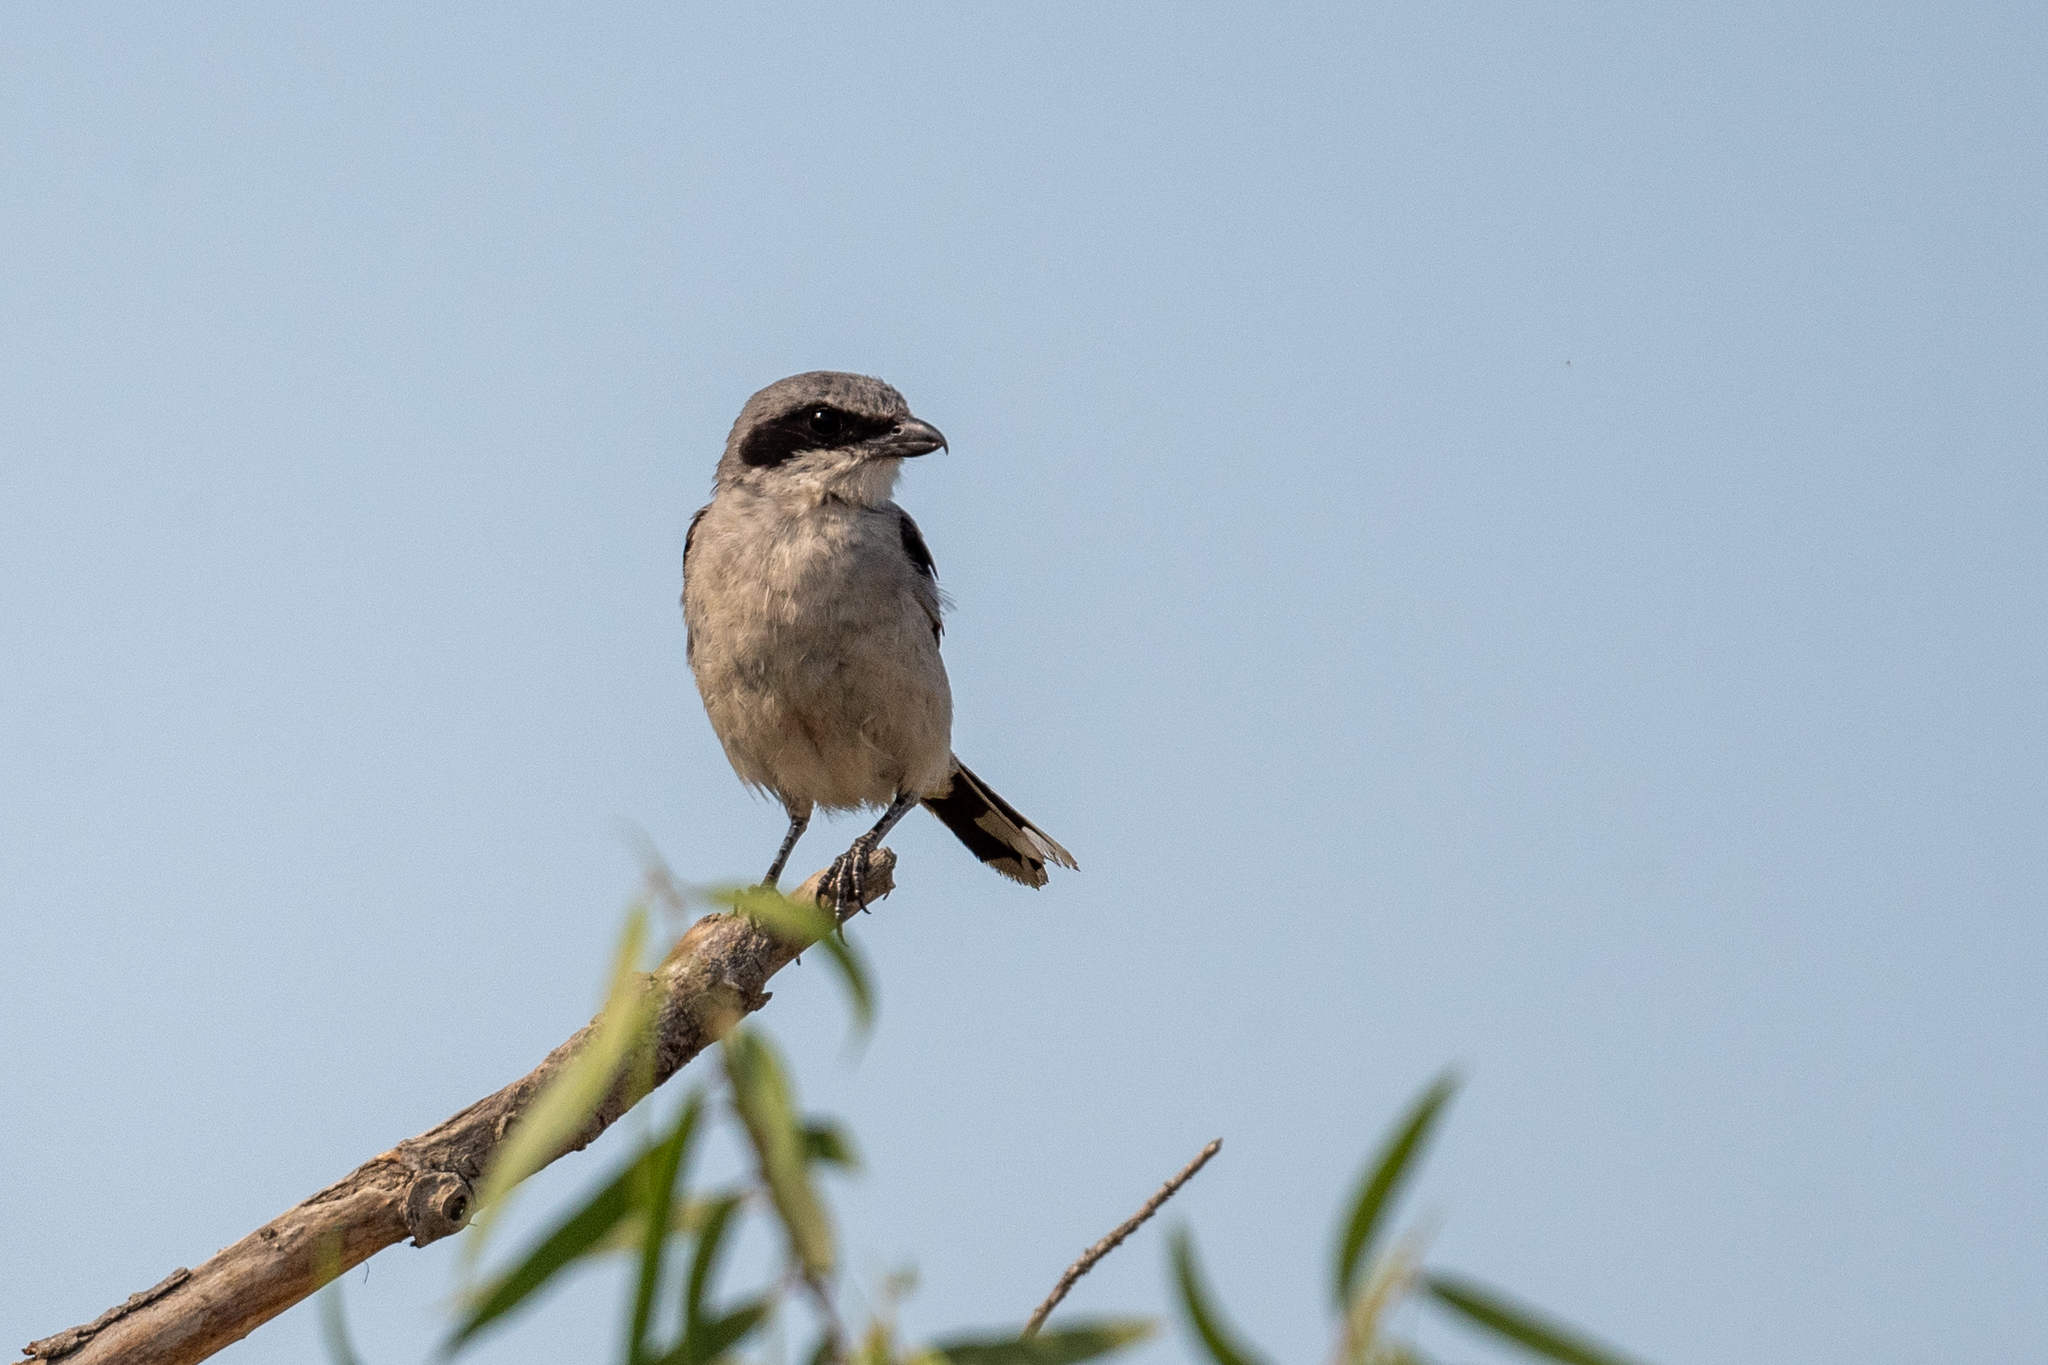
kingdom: Animalia
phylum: Chordata
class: Aves
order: Passeriformes
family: Laniidae
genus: Lanius
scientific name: Lanius ludovicianus
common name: Loggerhead shrike
